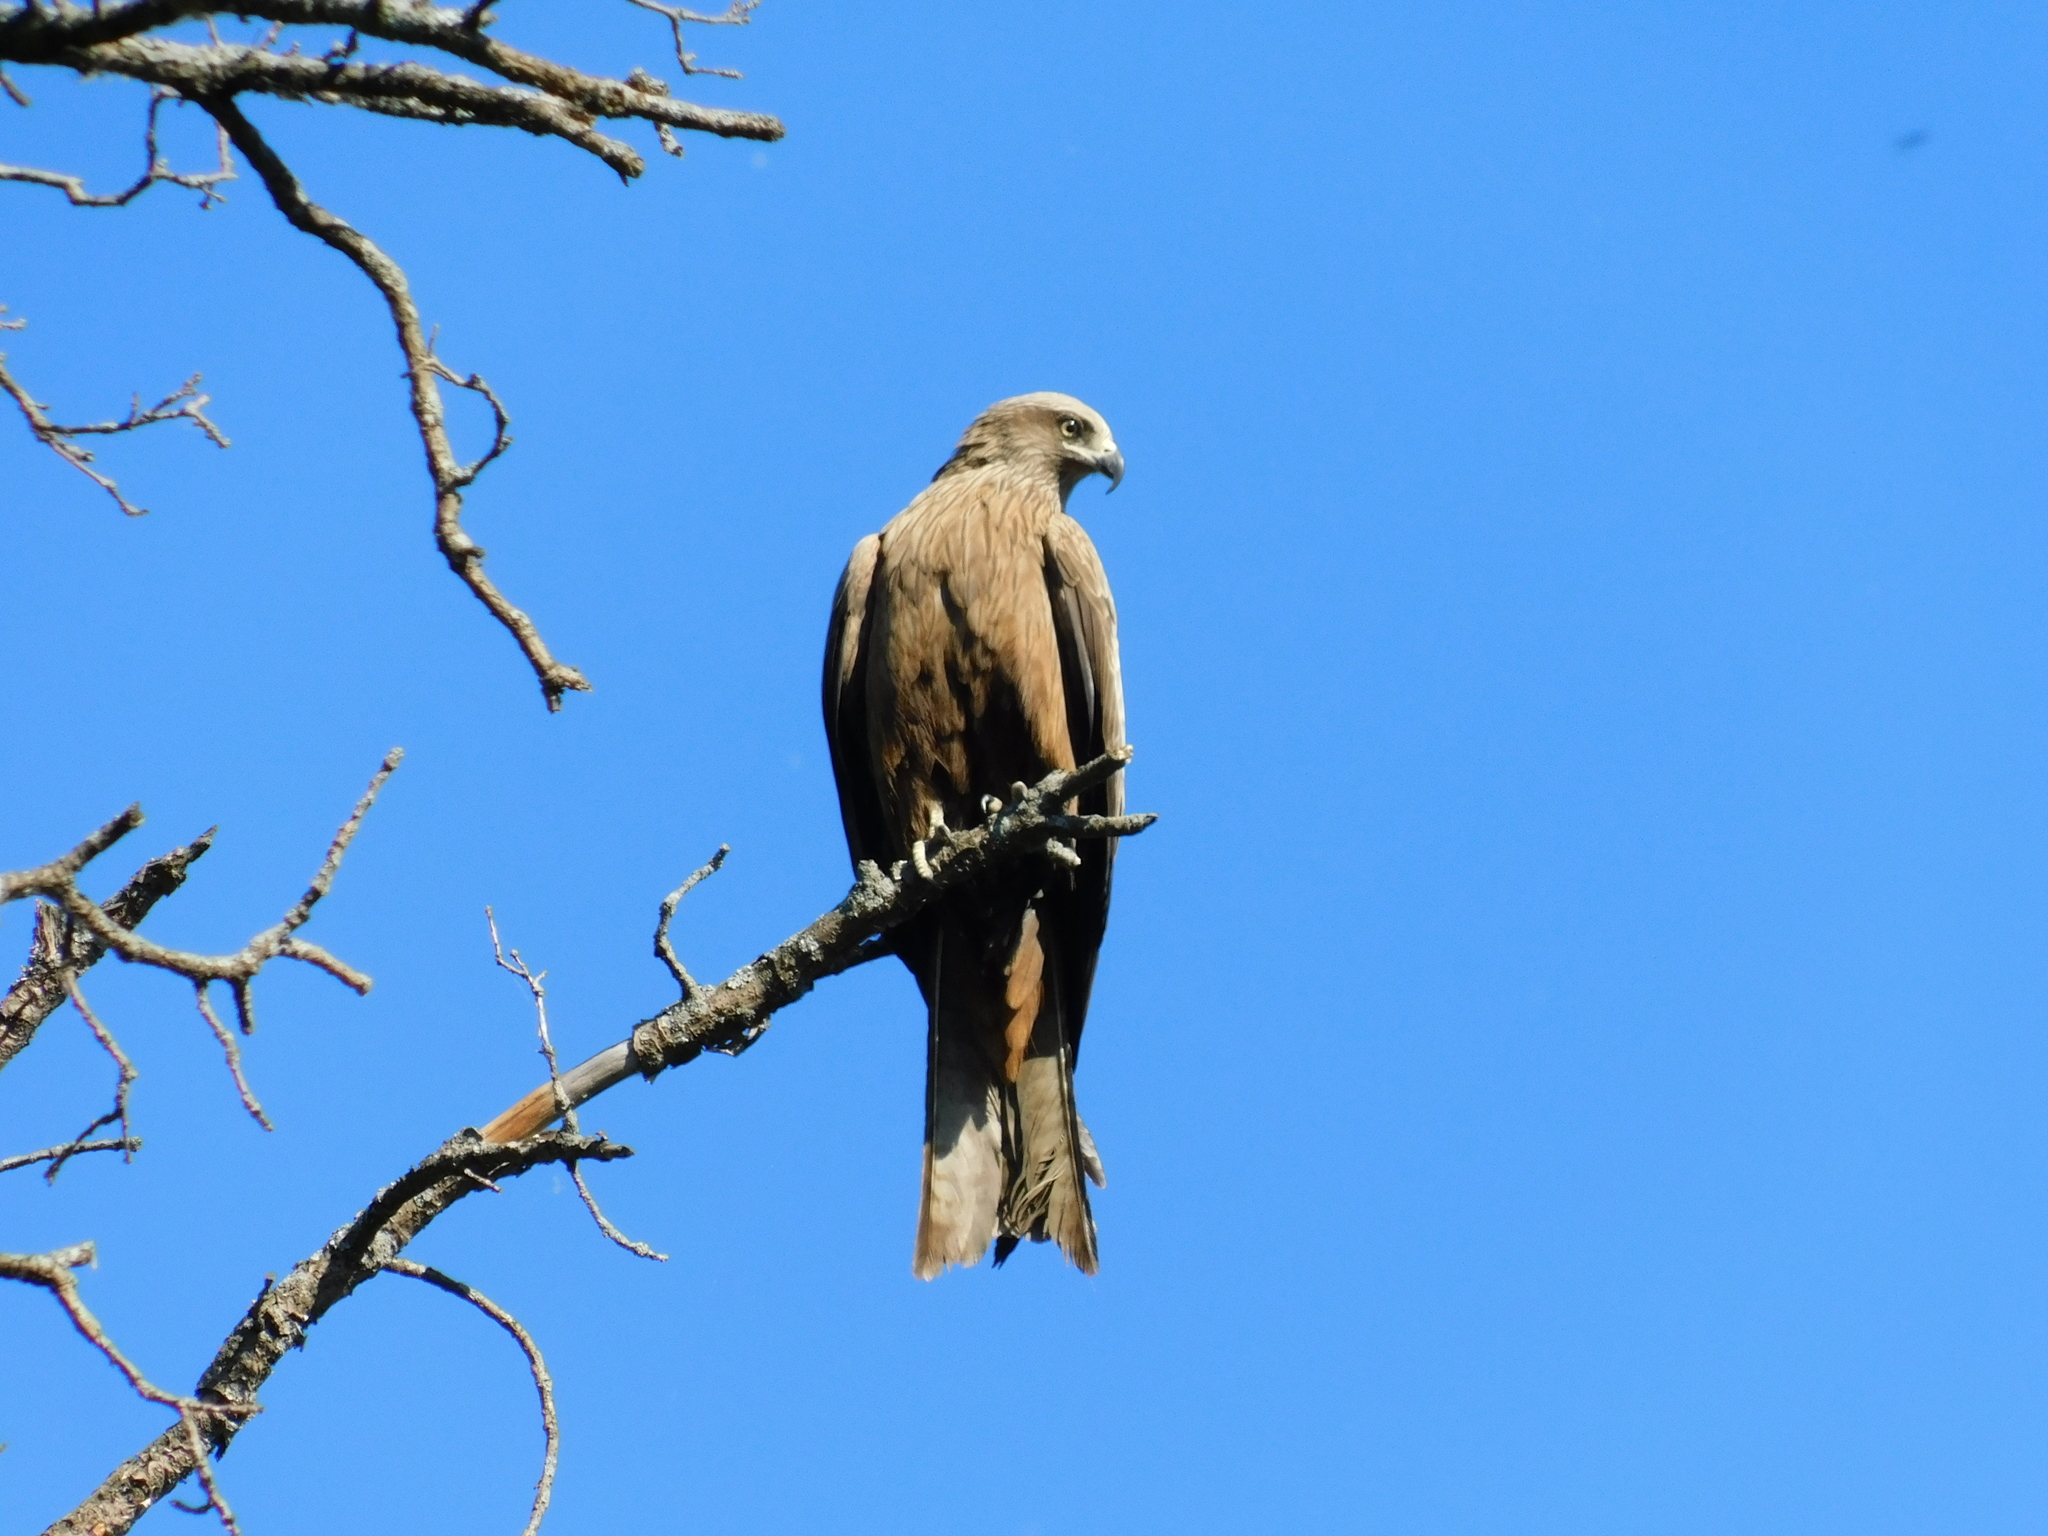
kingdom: Animalia
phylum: Chordata
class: Aves
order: Accipitriformes
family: Accipitridae
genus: Milvus
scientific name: Milvus migrans
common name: Black kite
